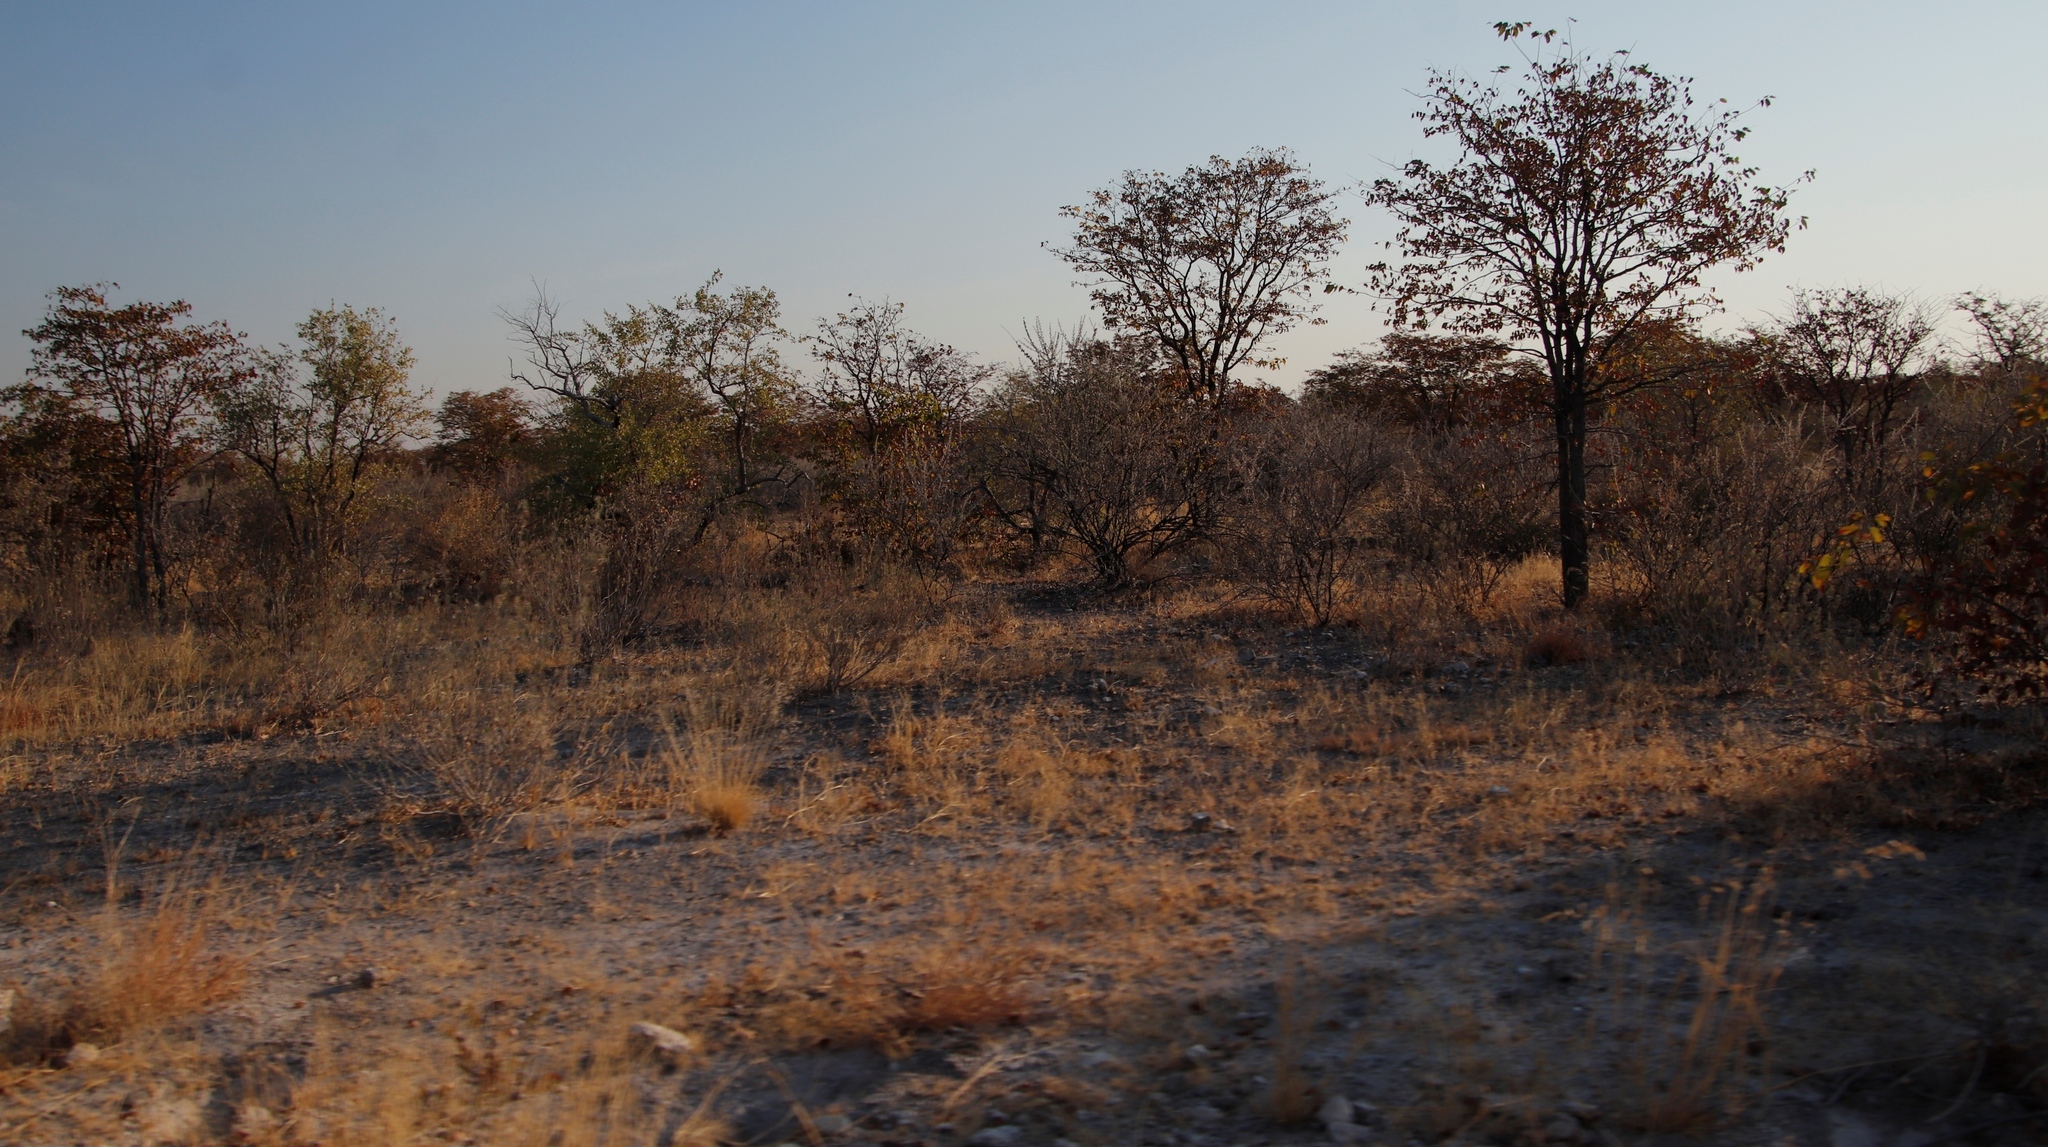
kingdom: Plantae
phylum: Tracheophyta
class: Magnoliopsida
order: Fabales
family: Fabaceae
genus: Colophospermum
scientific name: Colophospermum mopane
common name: Mopane
